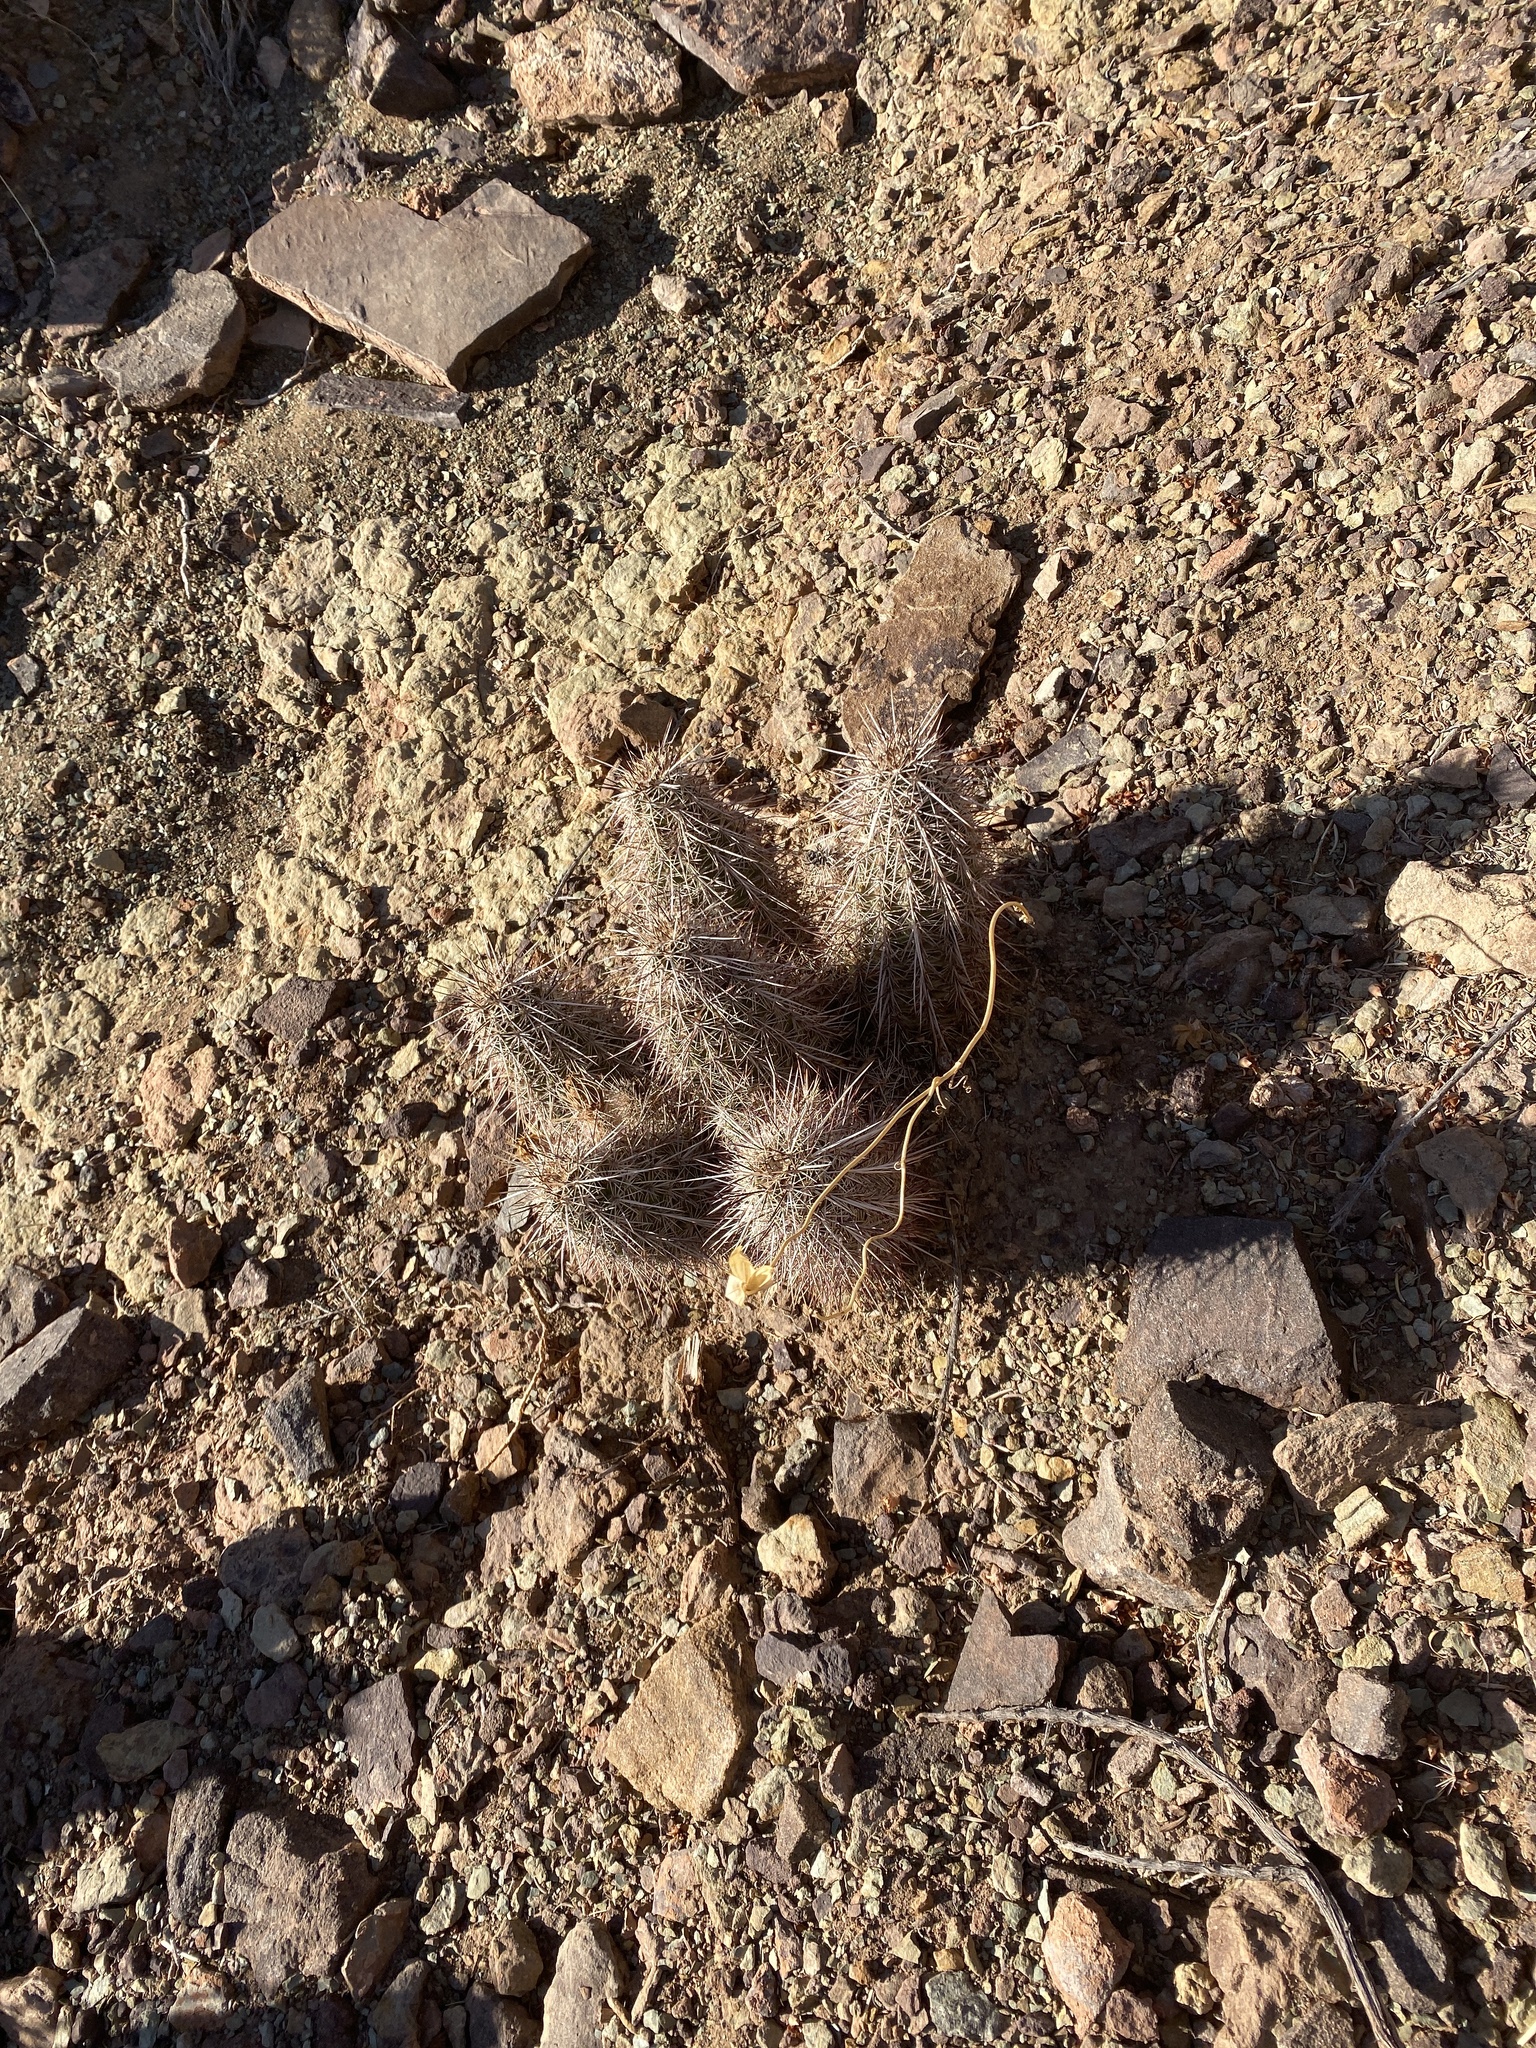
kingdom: Plantae
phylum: Tracheophyta
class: Magnoliopsida
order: Caryophyllales
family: Cactaceae
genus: Echinocereus
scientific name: Echinocereus engelmannii
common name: Engelmann's hedgehog cactus
